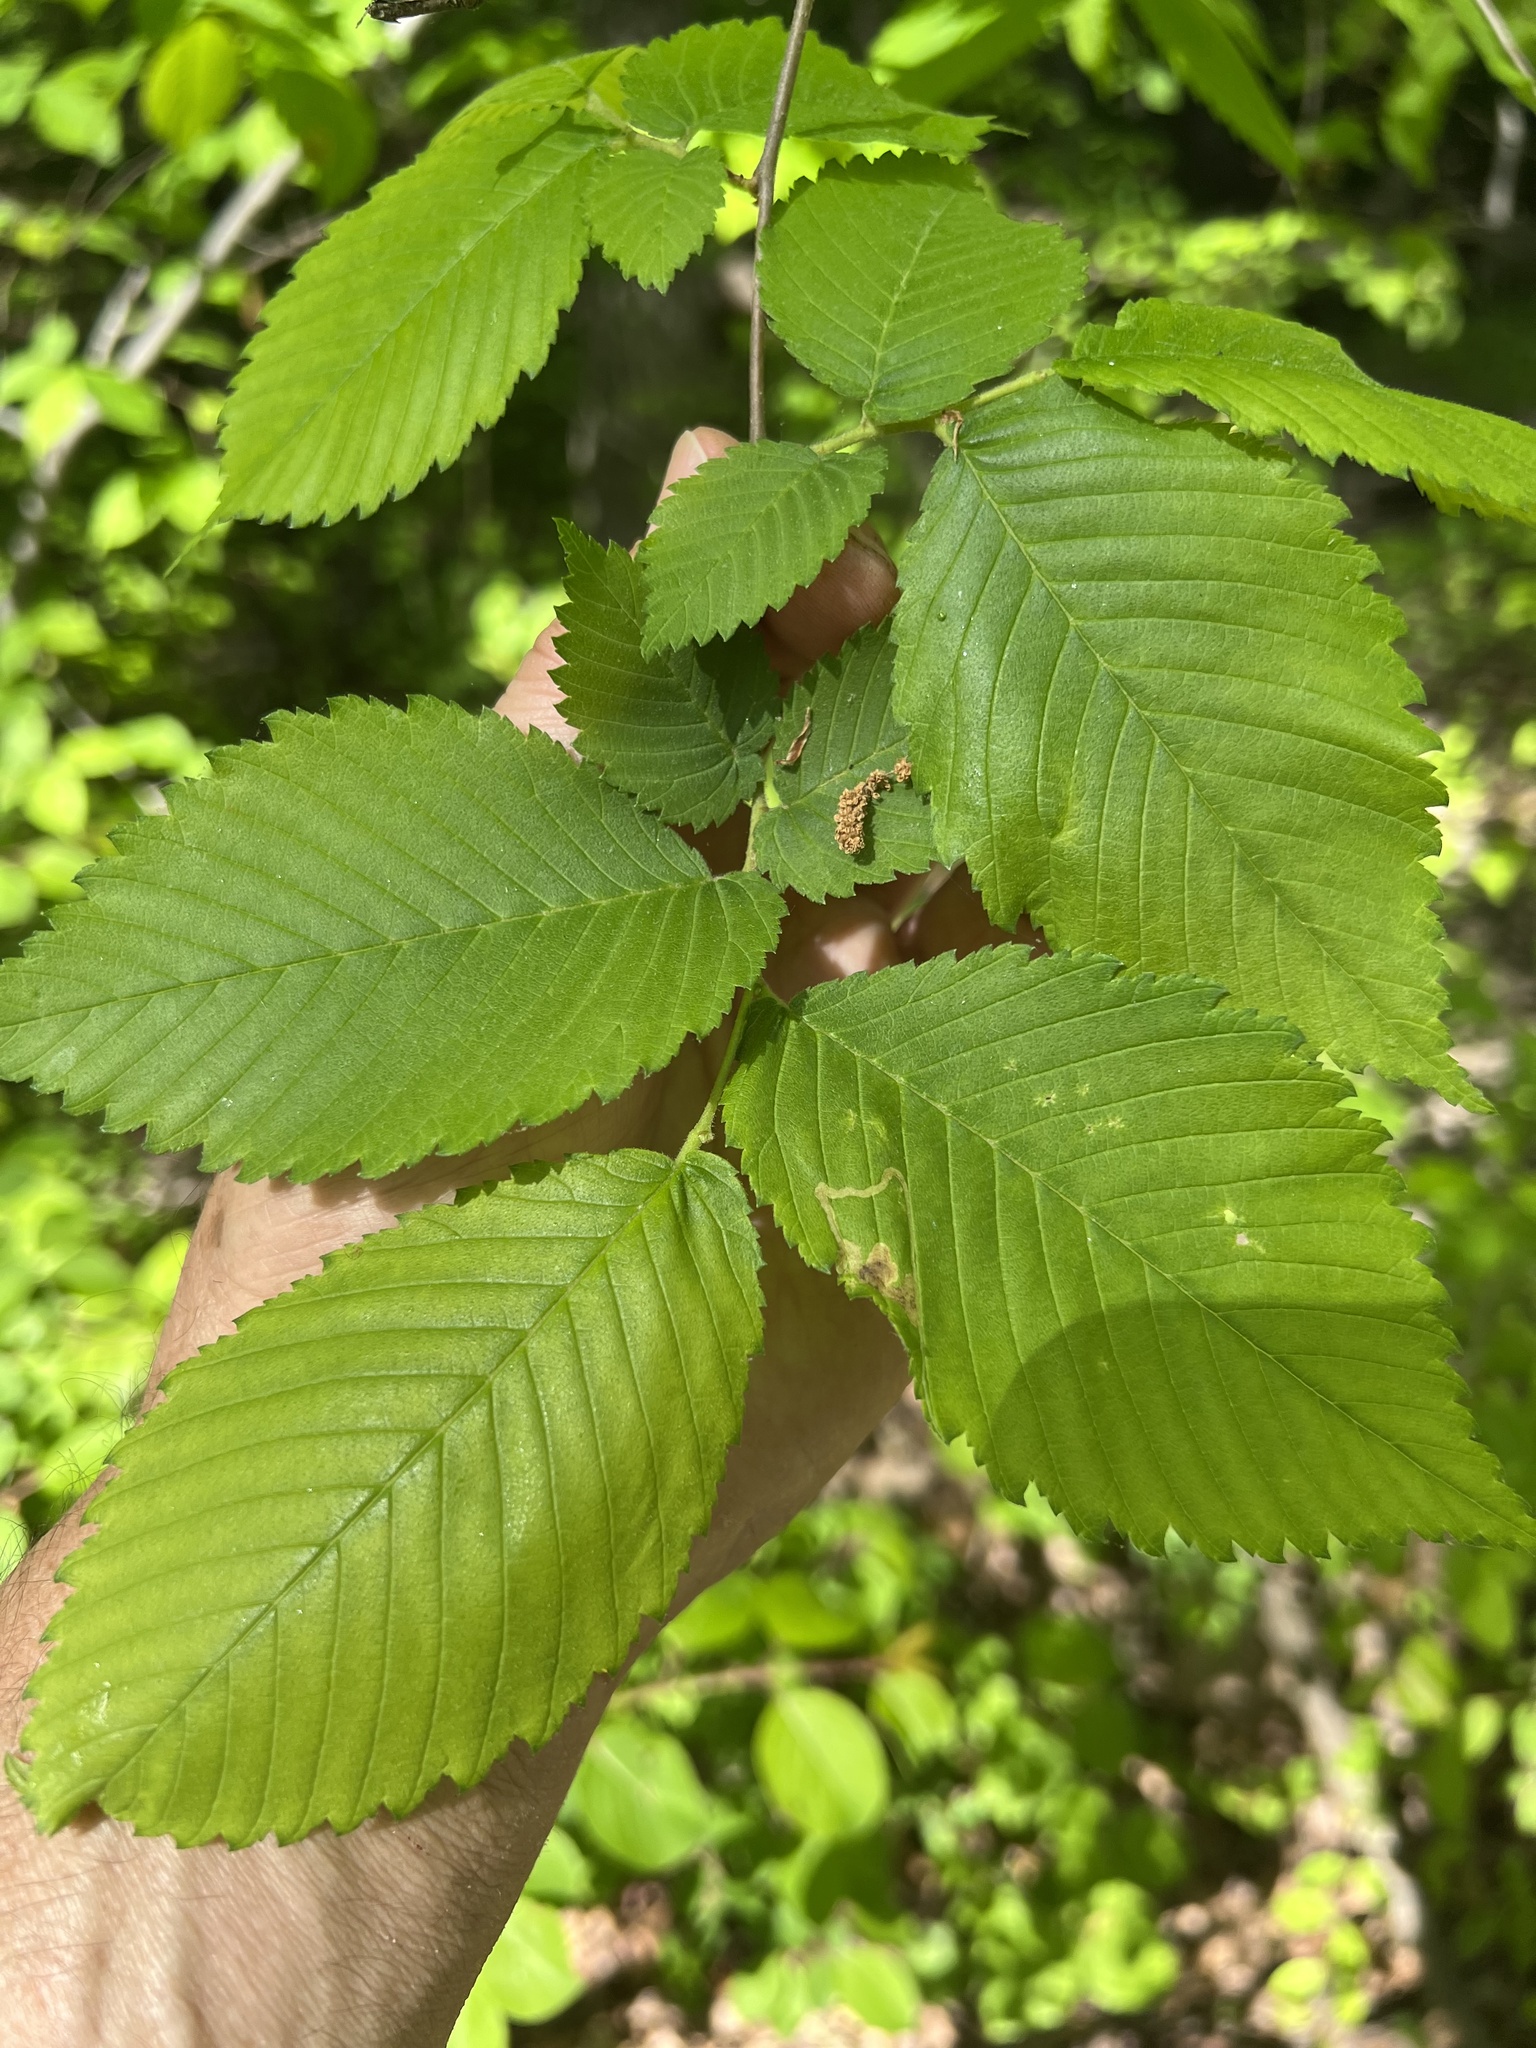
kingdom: Animalia
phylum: Arthropoda
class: Insecta
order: Diptera
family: Agromyzidae
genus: Agromyza
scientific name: Agromyza aristata
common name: Elm agromyzid leafminer
